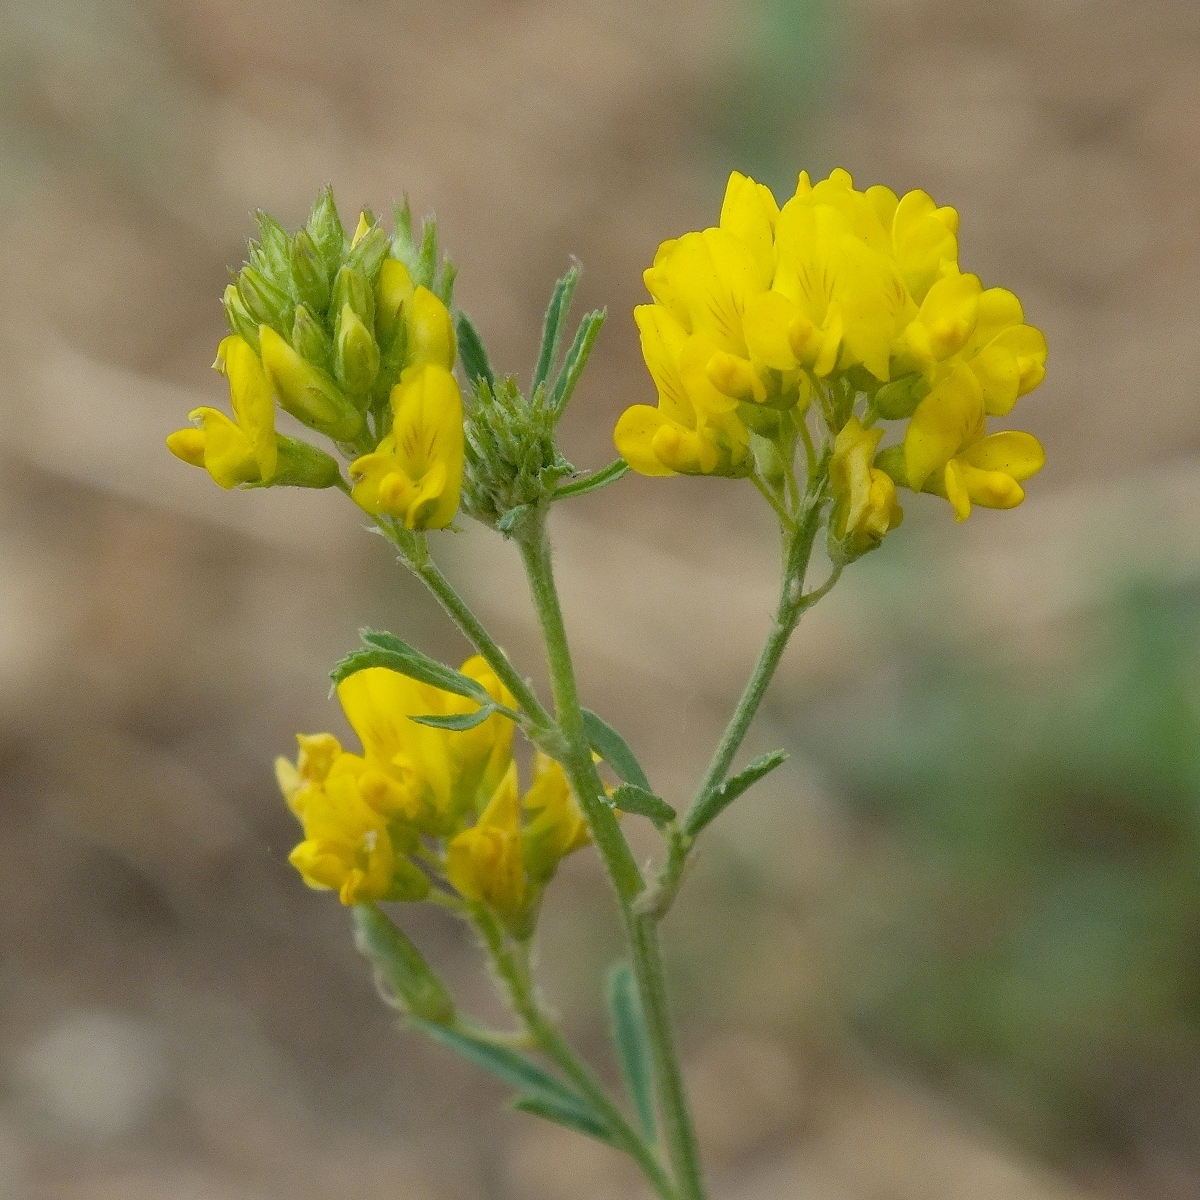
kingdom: Plantae
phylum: Tracheophyta
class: Magnoliopsida
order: Fabales
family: Fabaceae
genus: Medicago
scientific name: Medicago falcata
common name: Sickle medick
